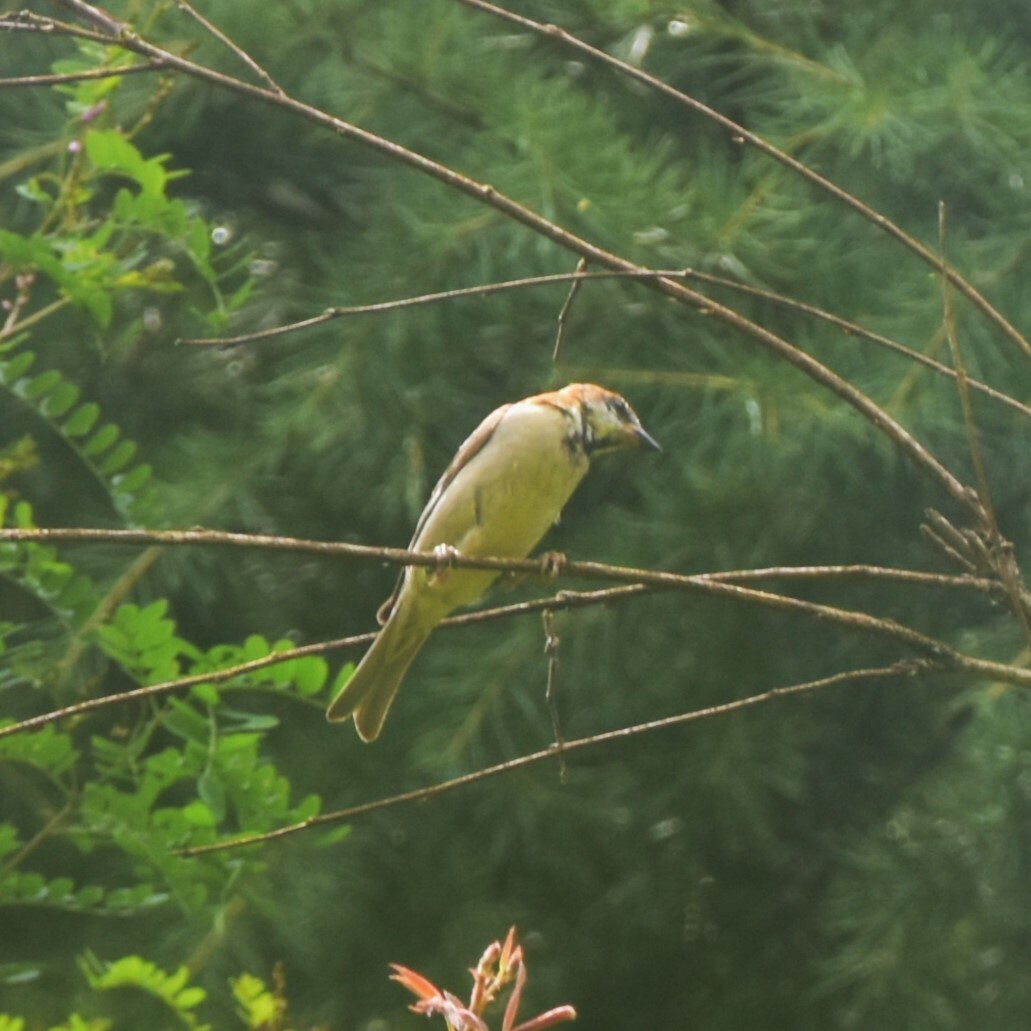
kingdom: Animalia
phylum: Chordata
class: Aves
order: Passeriformes
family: Passeridae
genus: Passer
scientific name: Passer cinnamomeus
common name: Russet sparrow
